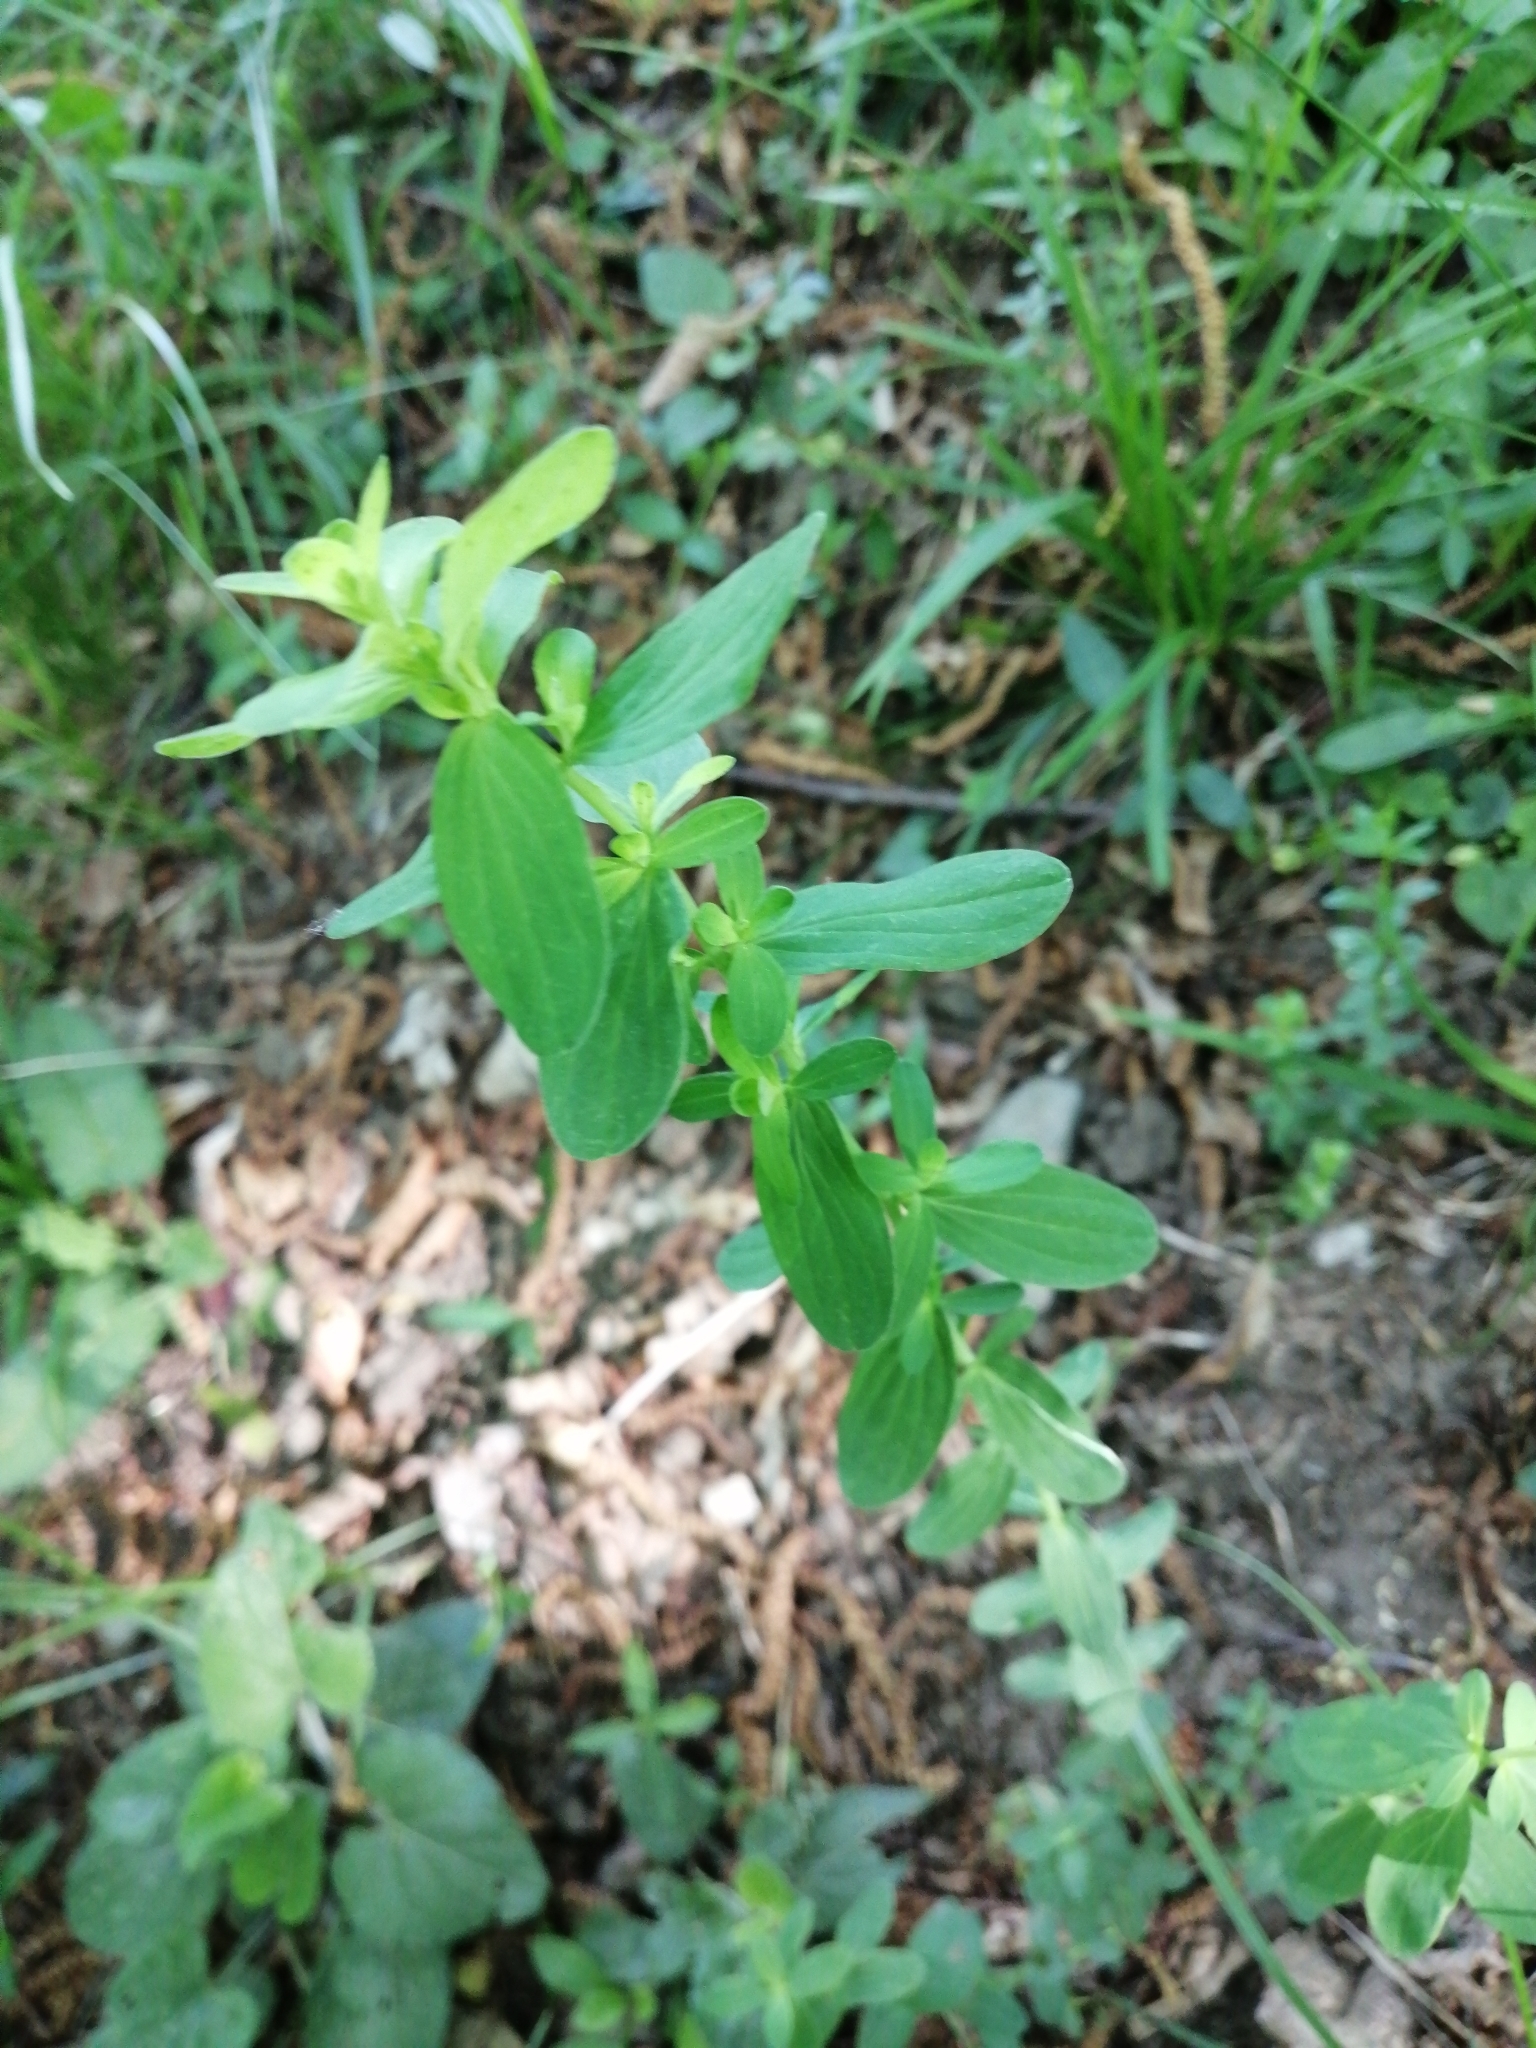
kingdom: Plantae
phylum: Tracheophyta
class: Magnoliopsida
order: Malpighiales
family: Hypericaceae
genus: Hypericum
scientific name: Hypericum perforatum
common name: Common st. johnswort
